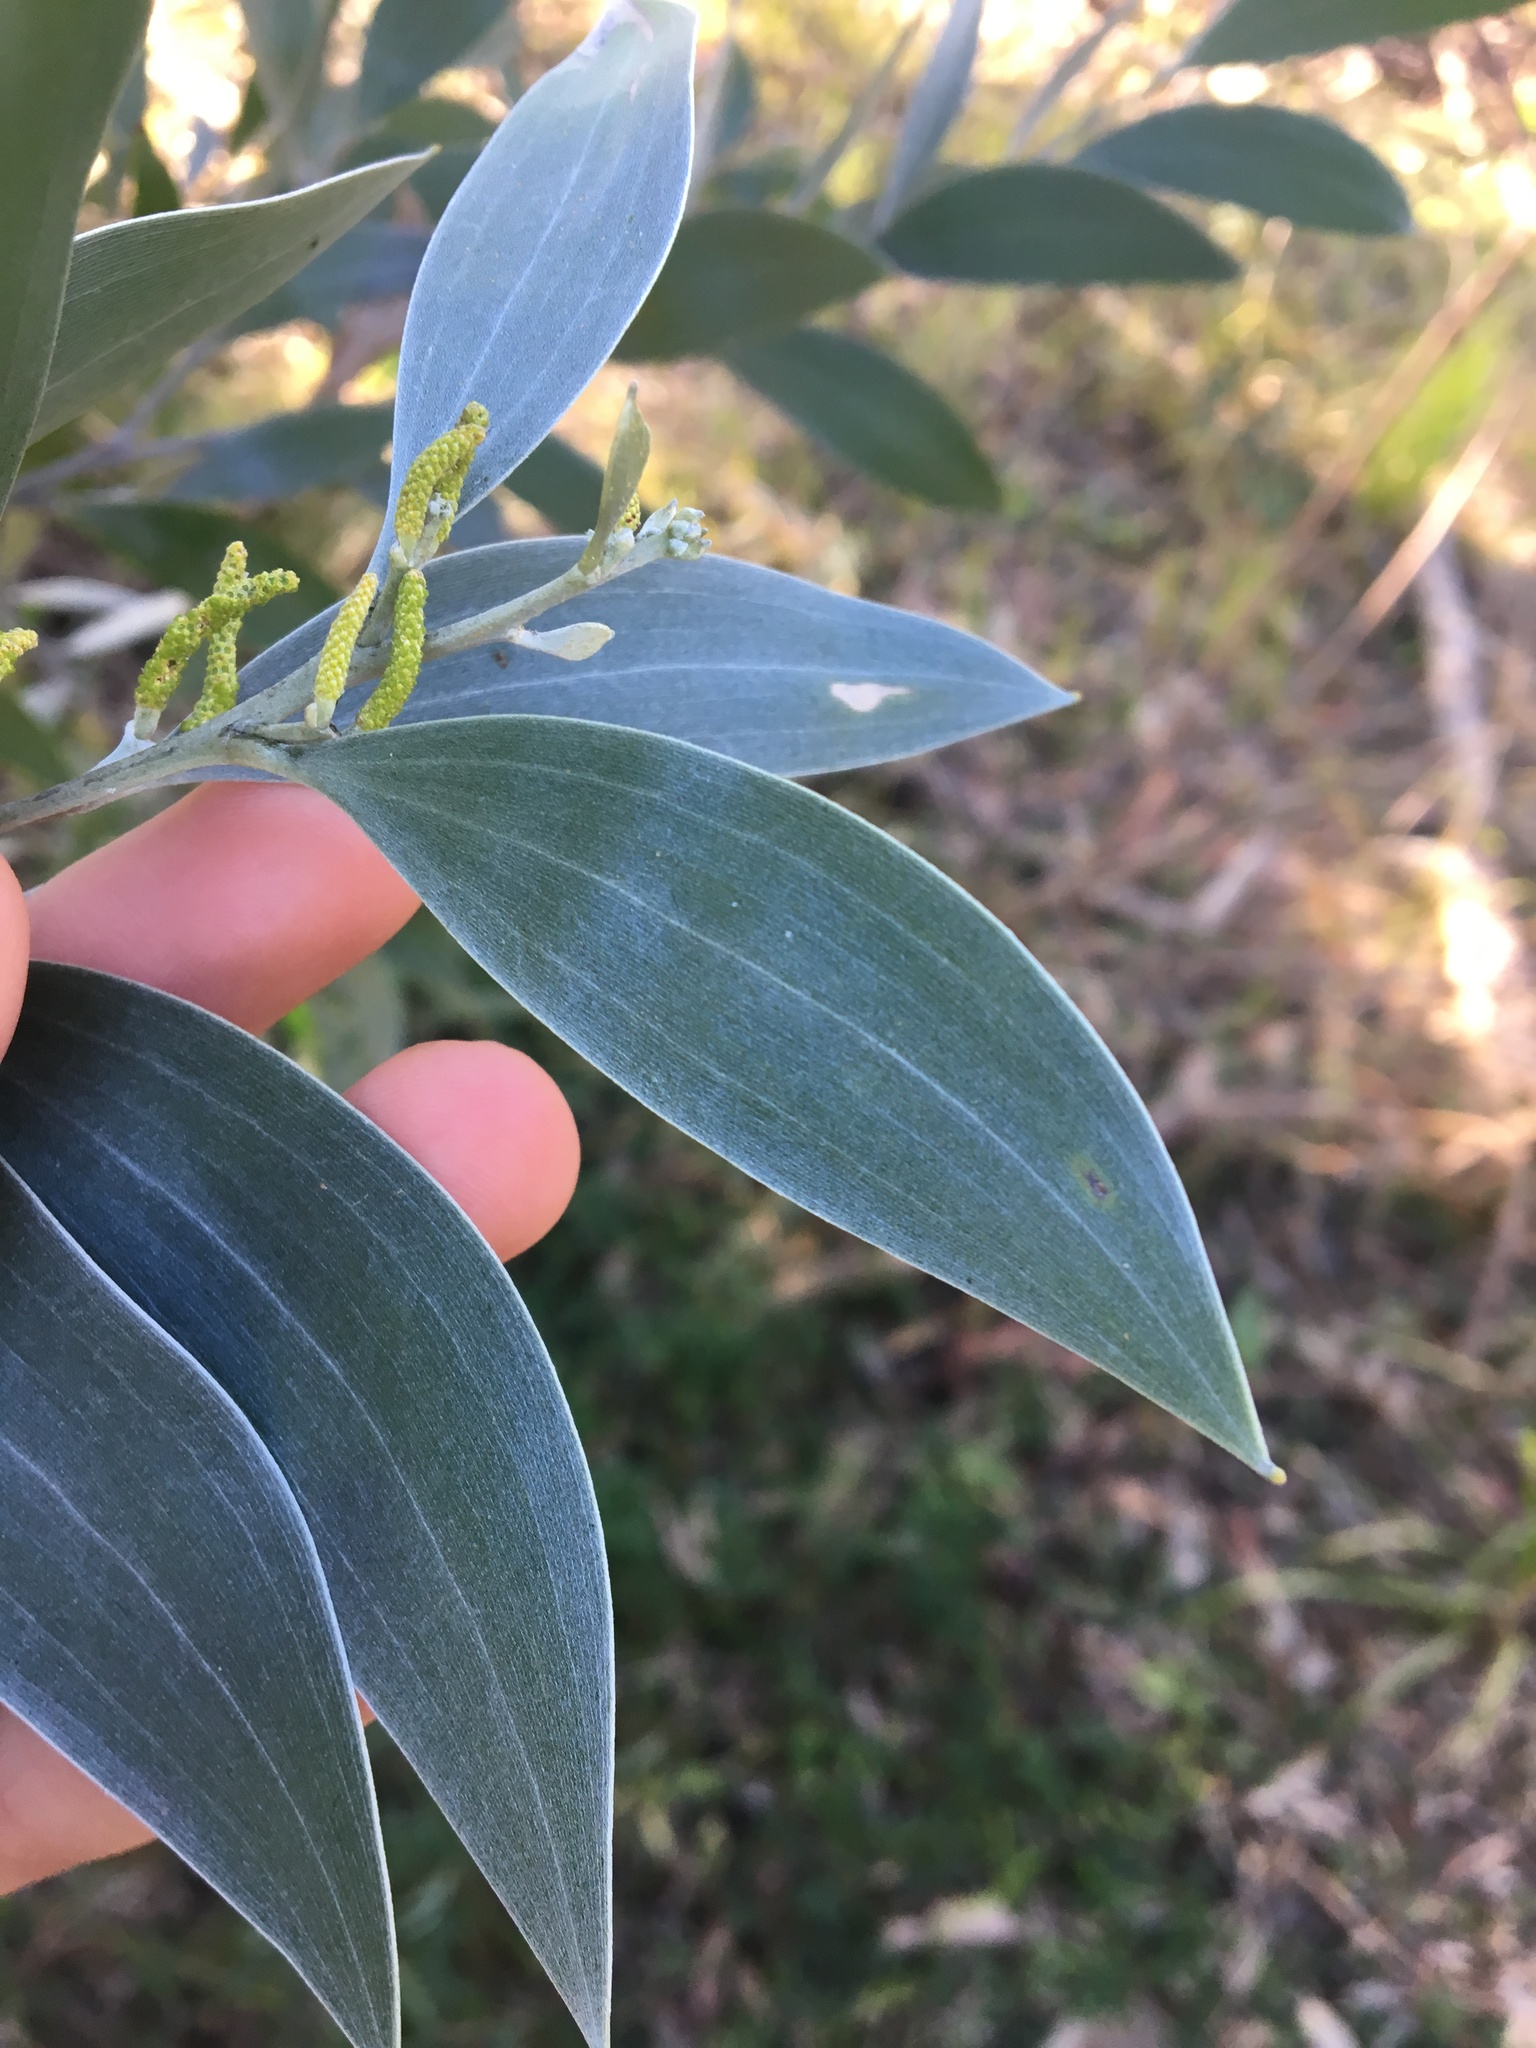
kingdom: Plantae
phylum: Tracheophyta
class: Magnoliopsida
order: Fabales
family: Fabaceae
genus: Acacia
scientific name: Acacia binervia
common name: Coast myall
